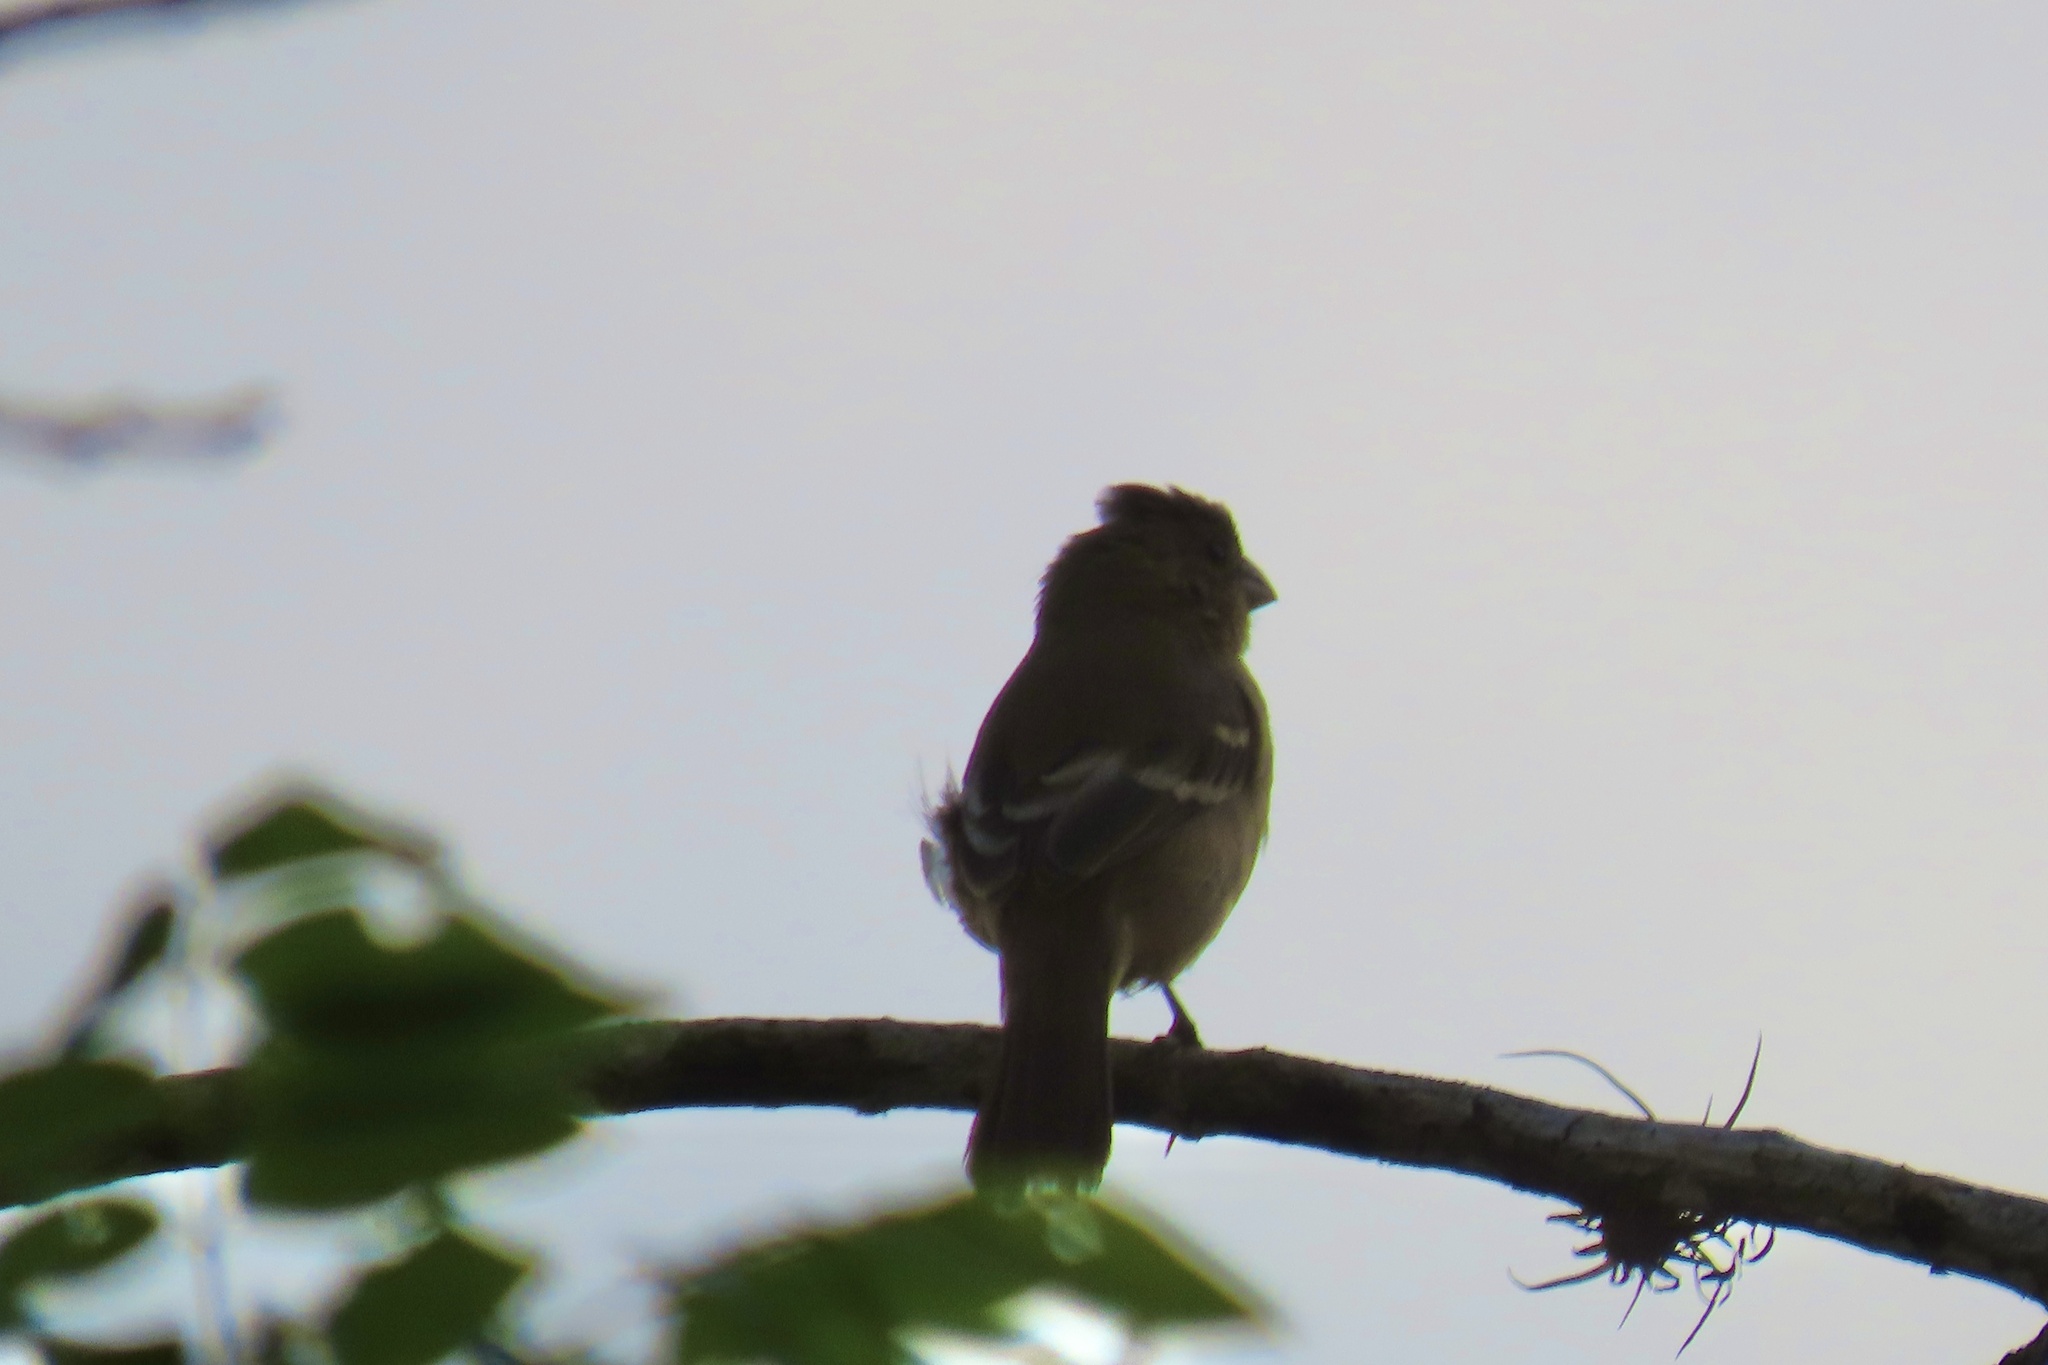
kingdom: Animalia
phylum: Chordata
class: Aves
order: Passeriformes
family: Thraupidae
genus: Sporophila
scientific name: Sporophila morelleti
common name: Morelet's seedeater
